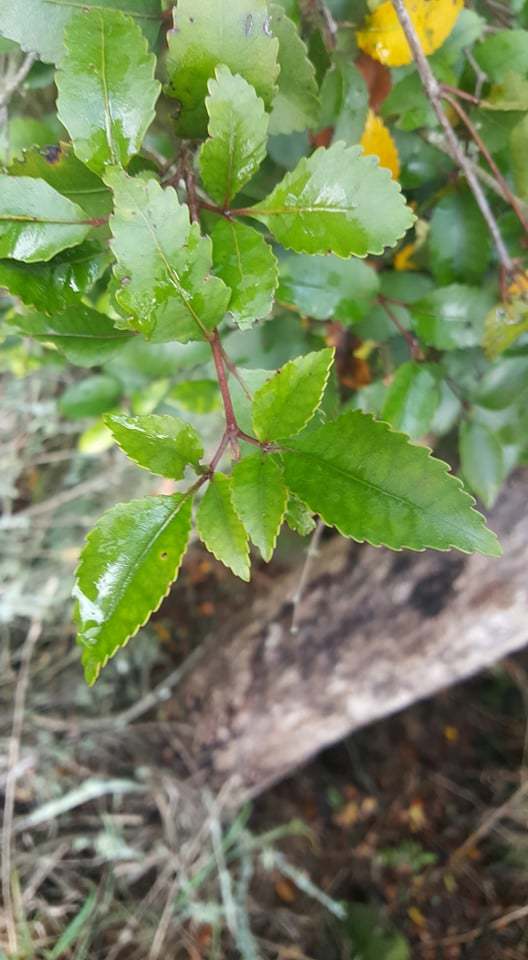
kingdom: Plantae
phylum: Tracheophyta
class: Magnoliopsida
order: Oxalidales
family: Cunoniaceae
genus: Pterophylla
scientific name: Pterophylla racemosa
